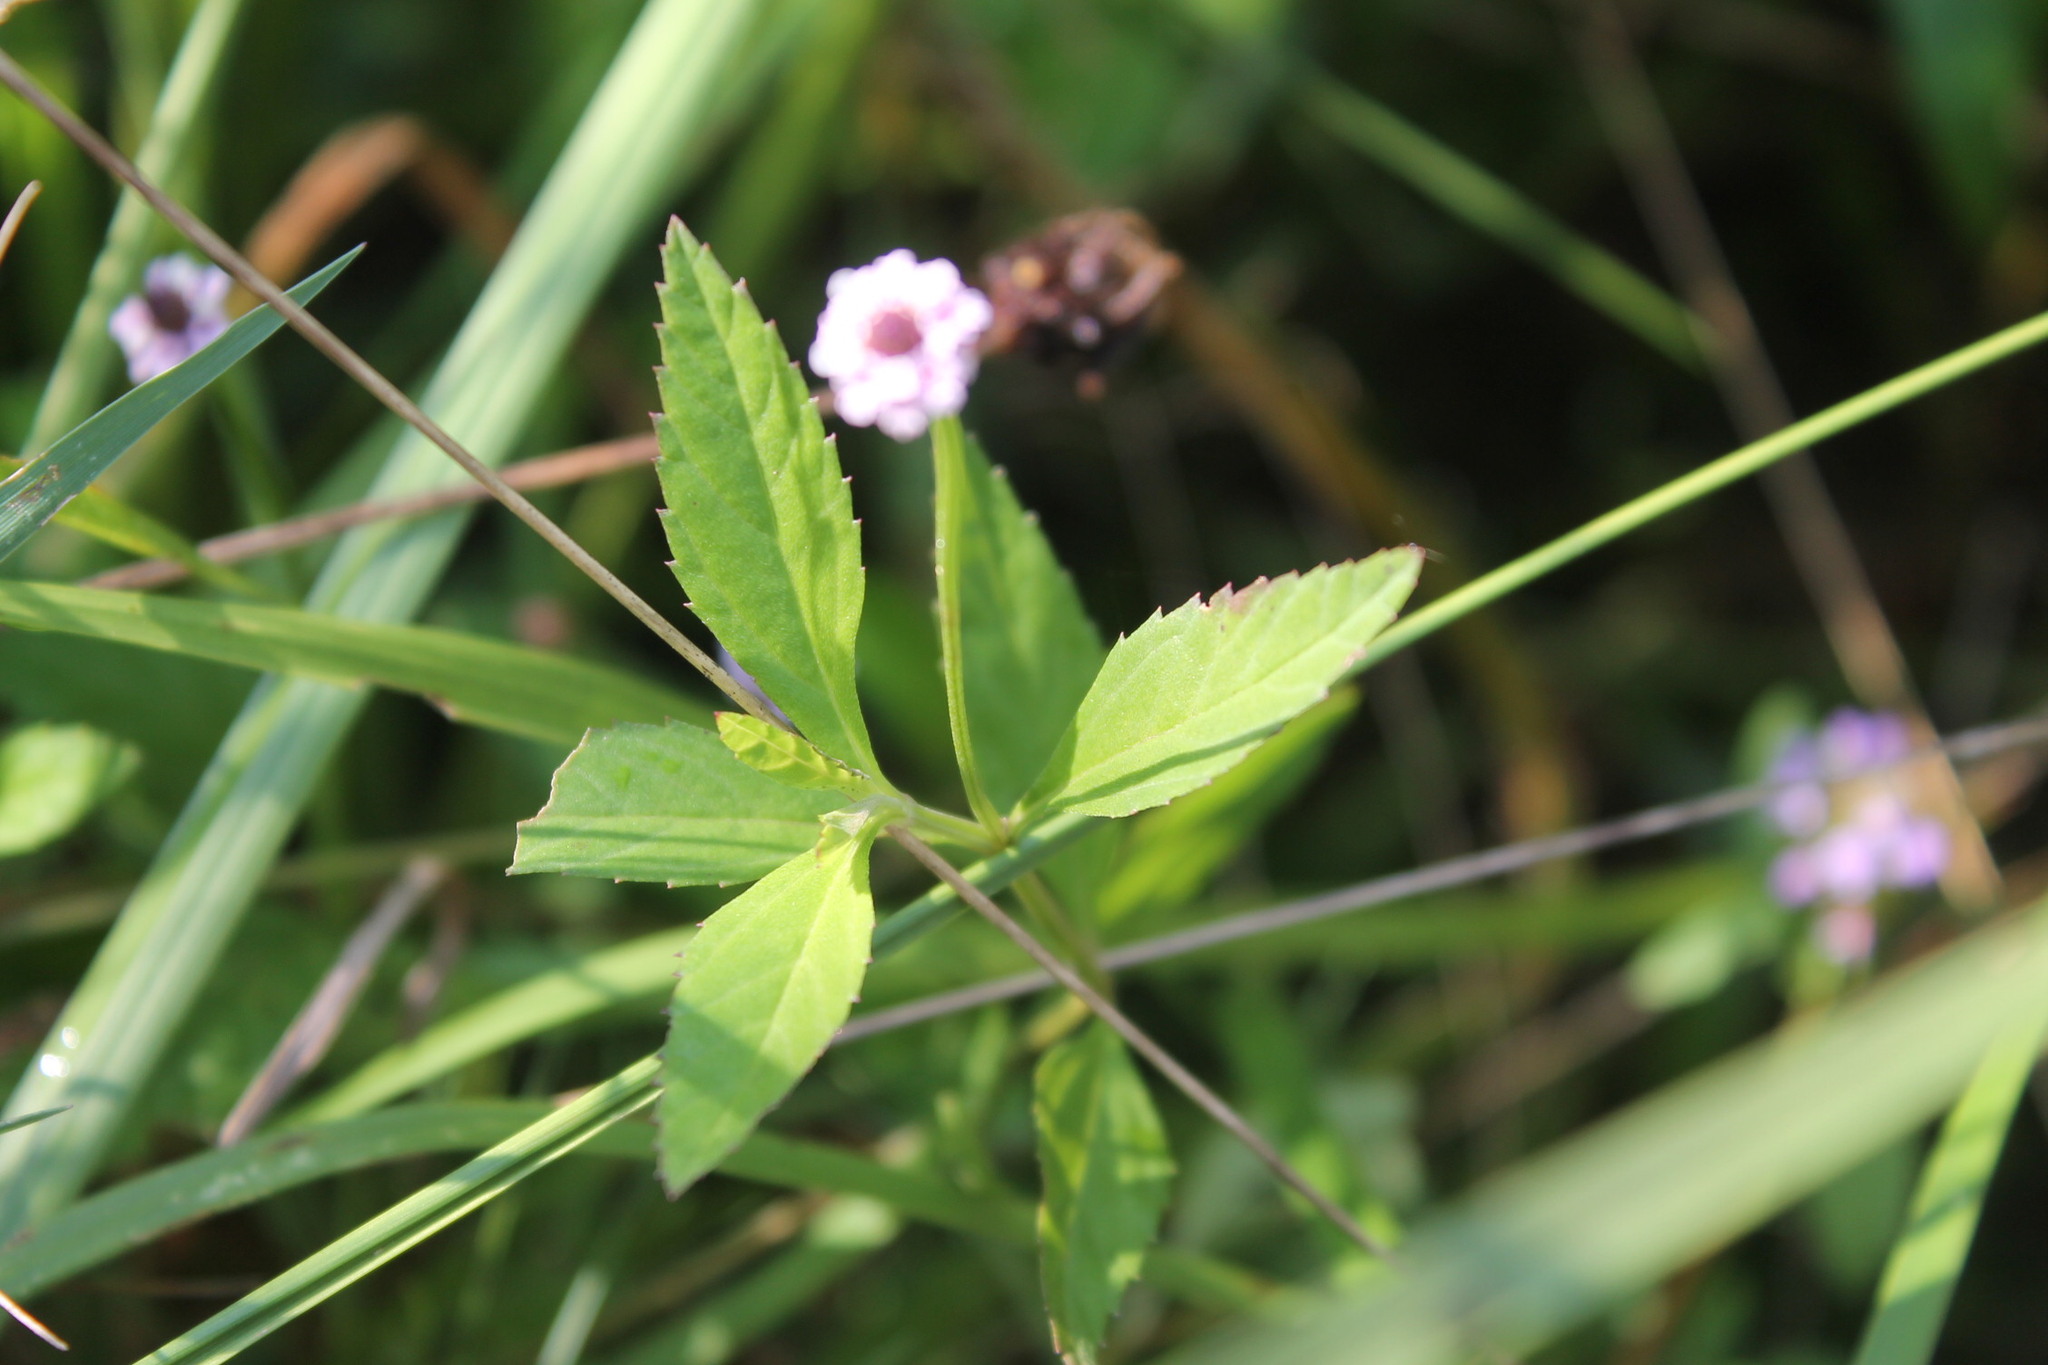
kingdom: Plantae
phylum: Tracheophyta
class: Magnoliopsida
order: Lamiales
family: Verbenaceae
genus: Phyla
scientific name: Phyla lanceolata
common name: Northern fogfruit
